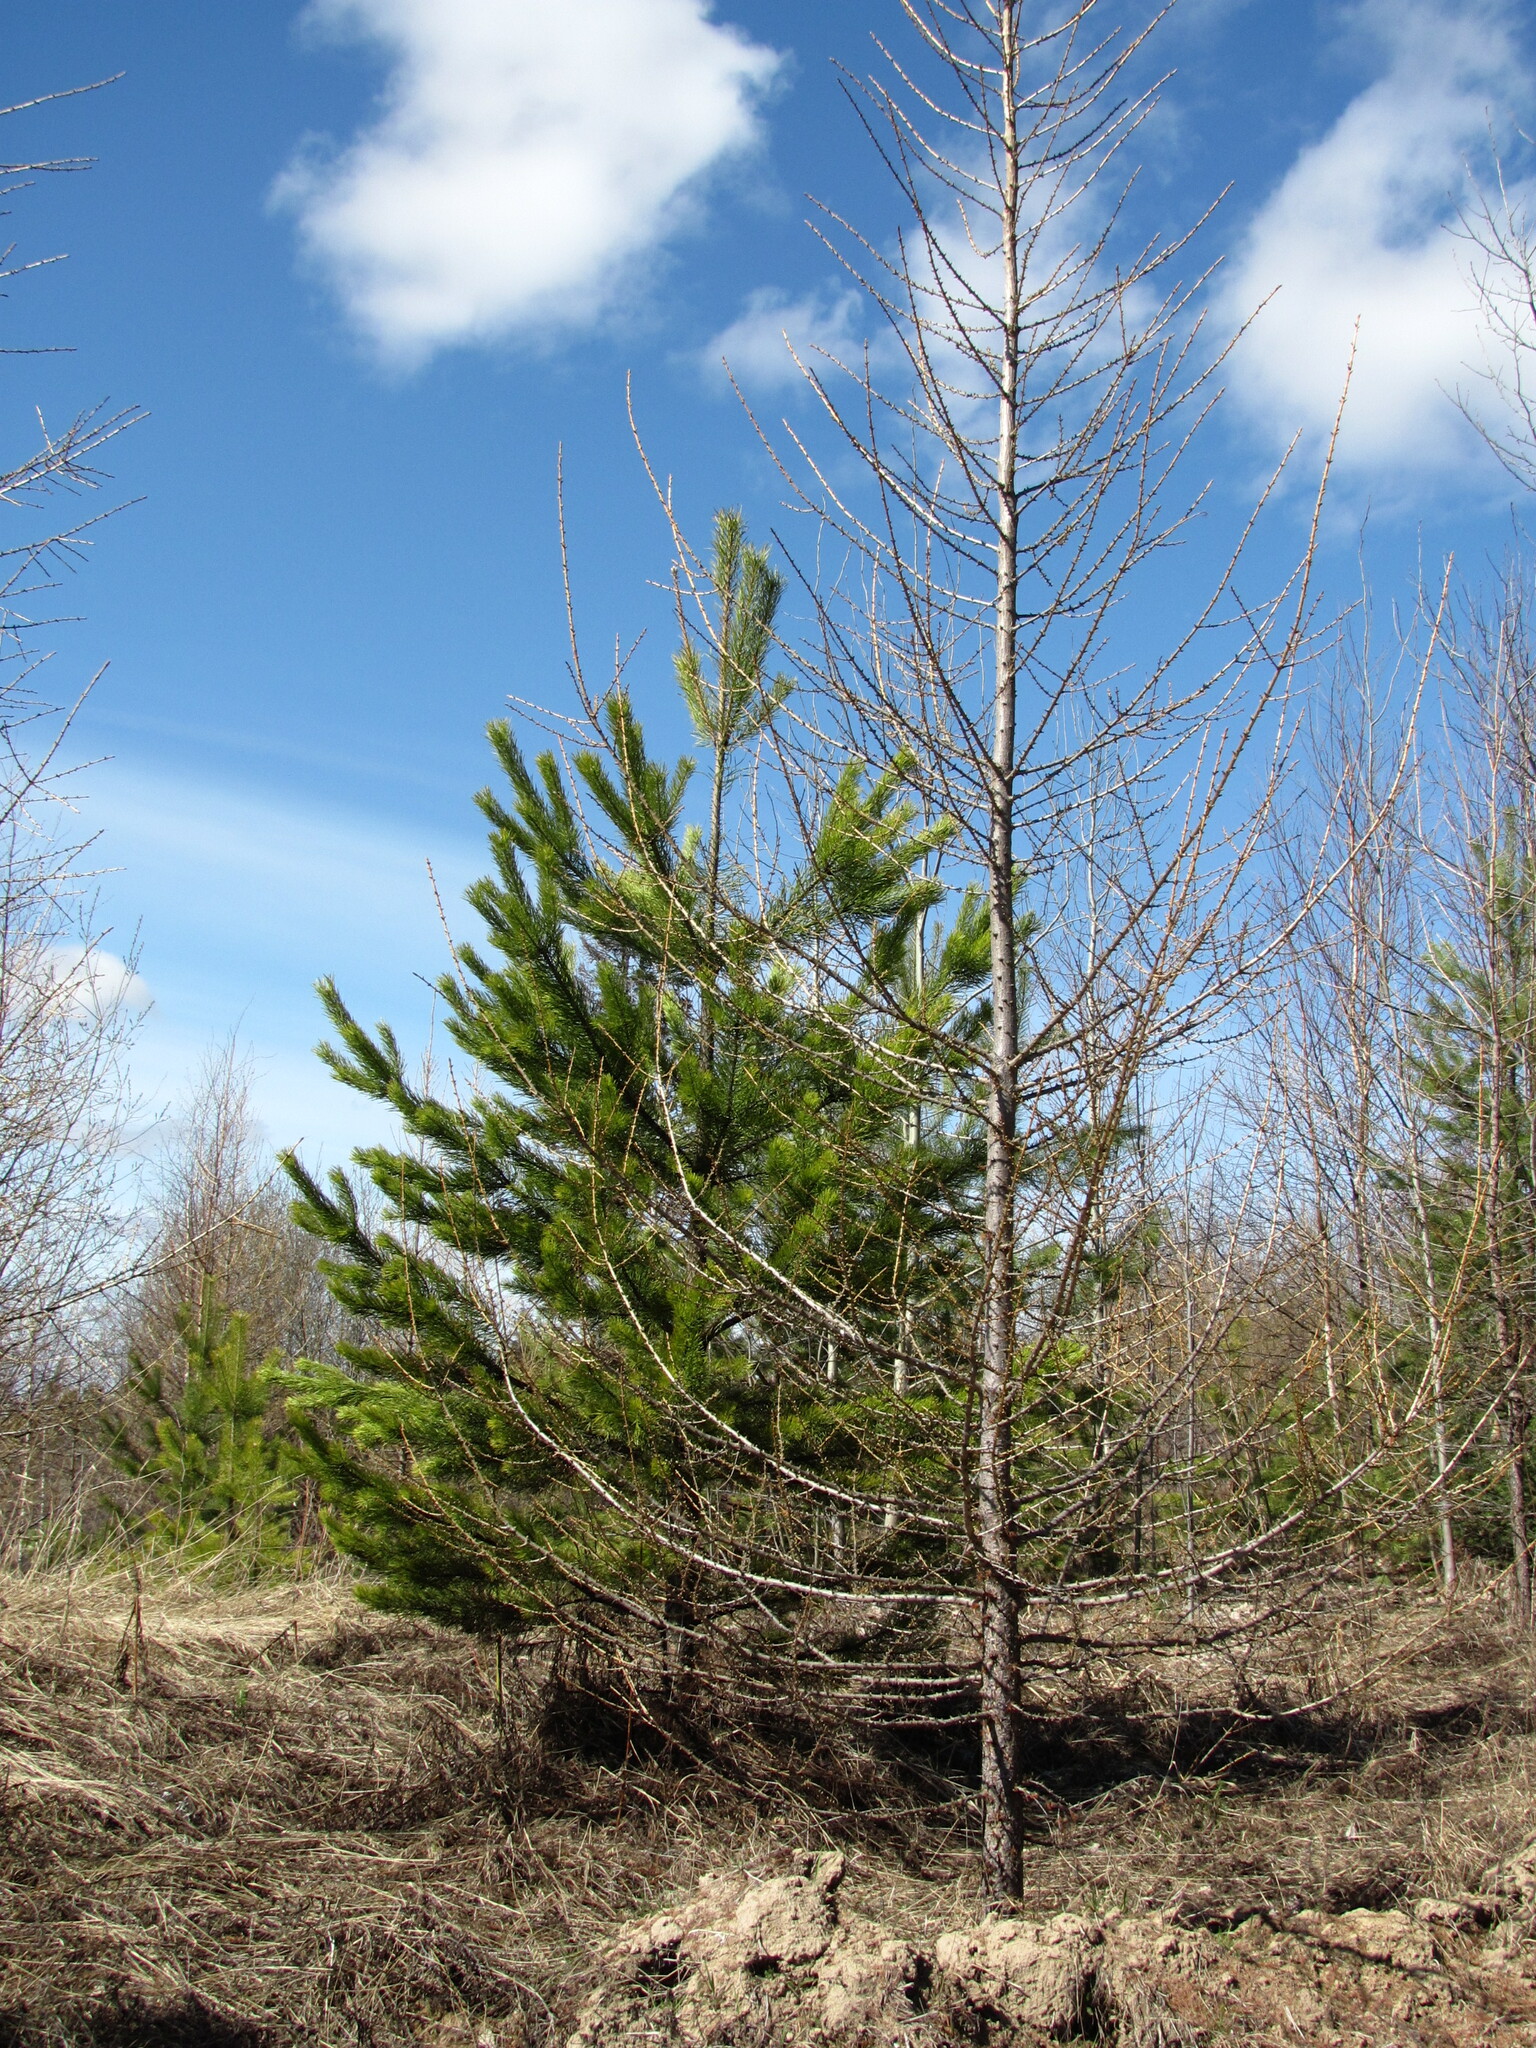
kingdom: Plantae
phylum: Tracheophyta
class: Pinopsida
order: Pinales
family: Pinaceae
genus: Larix
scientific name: Larix sibirica
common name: Siberian larch
